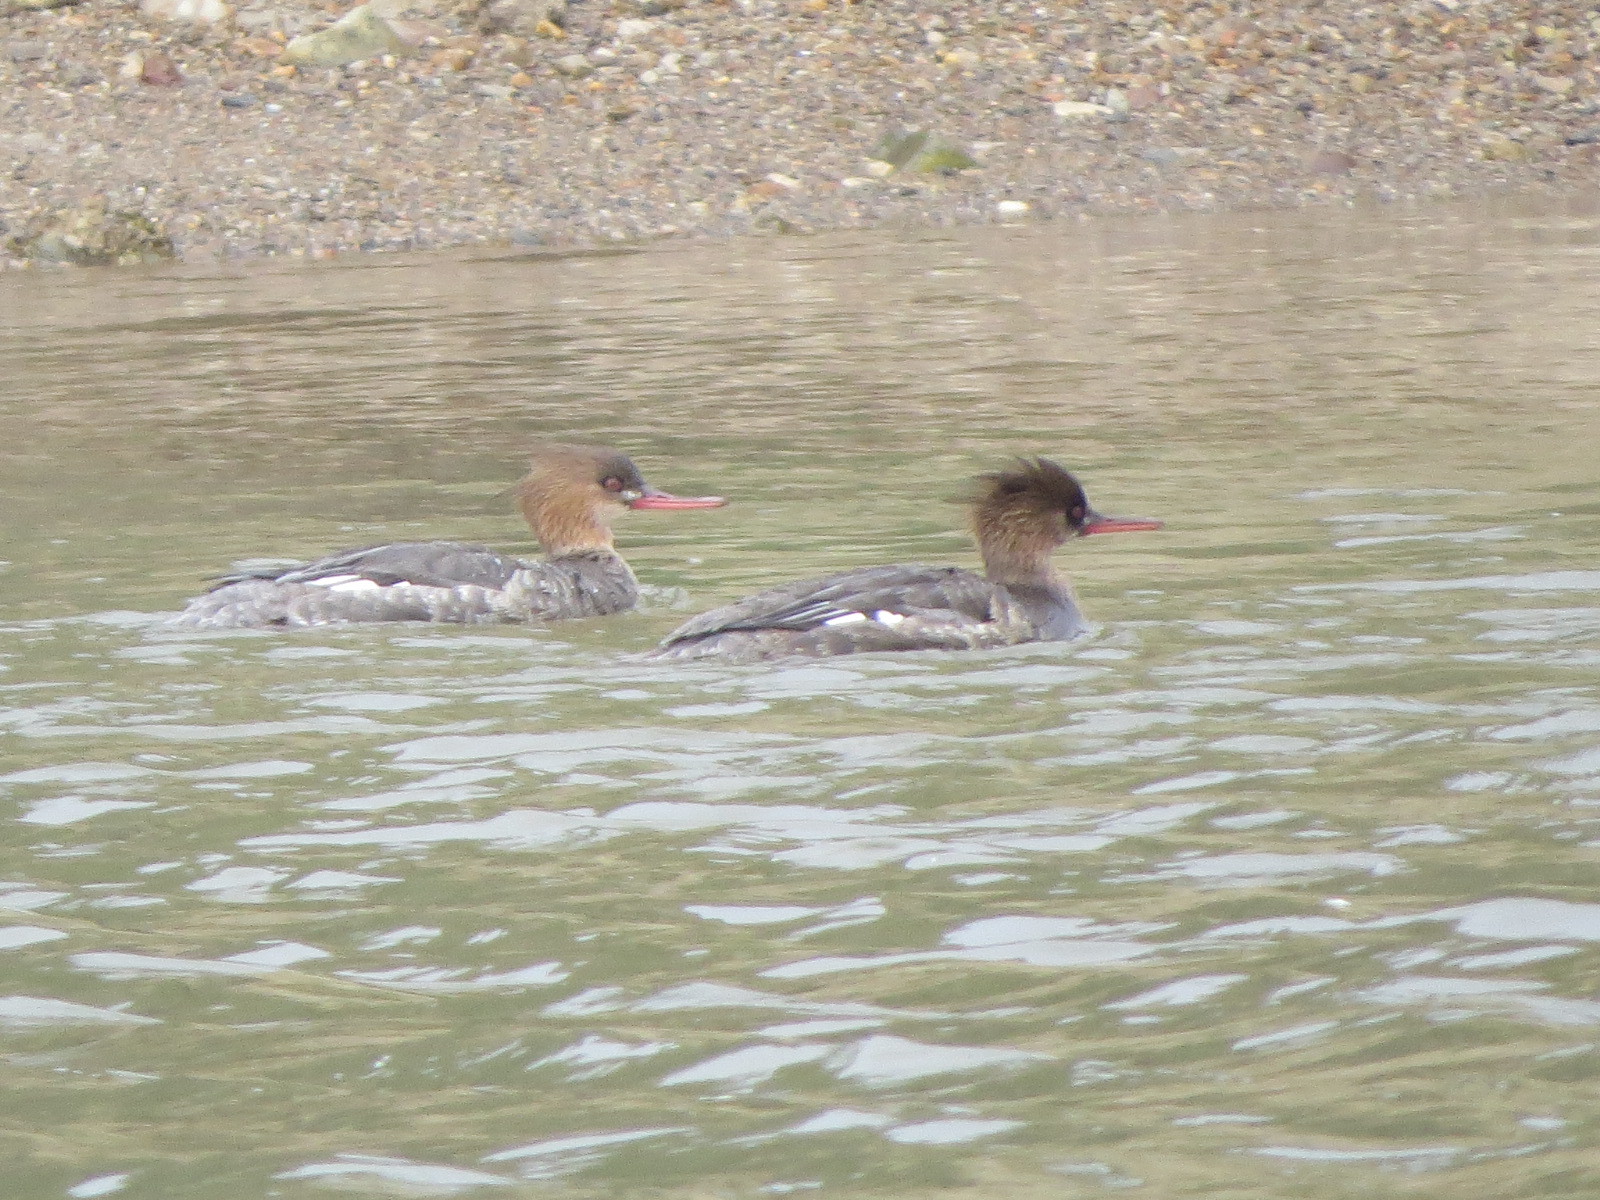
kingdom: Animalia
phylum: Chordata
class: Aves
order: Anseriformes
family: Anatidae
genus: Mergus
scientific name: Mergus serrator
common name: Red-breasted merganser
